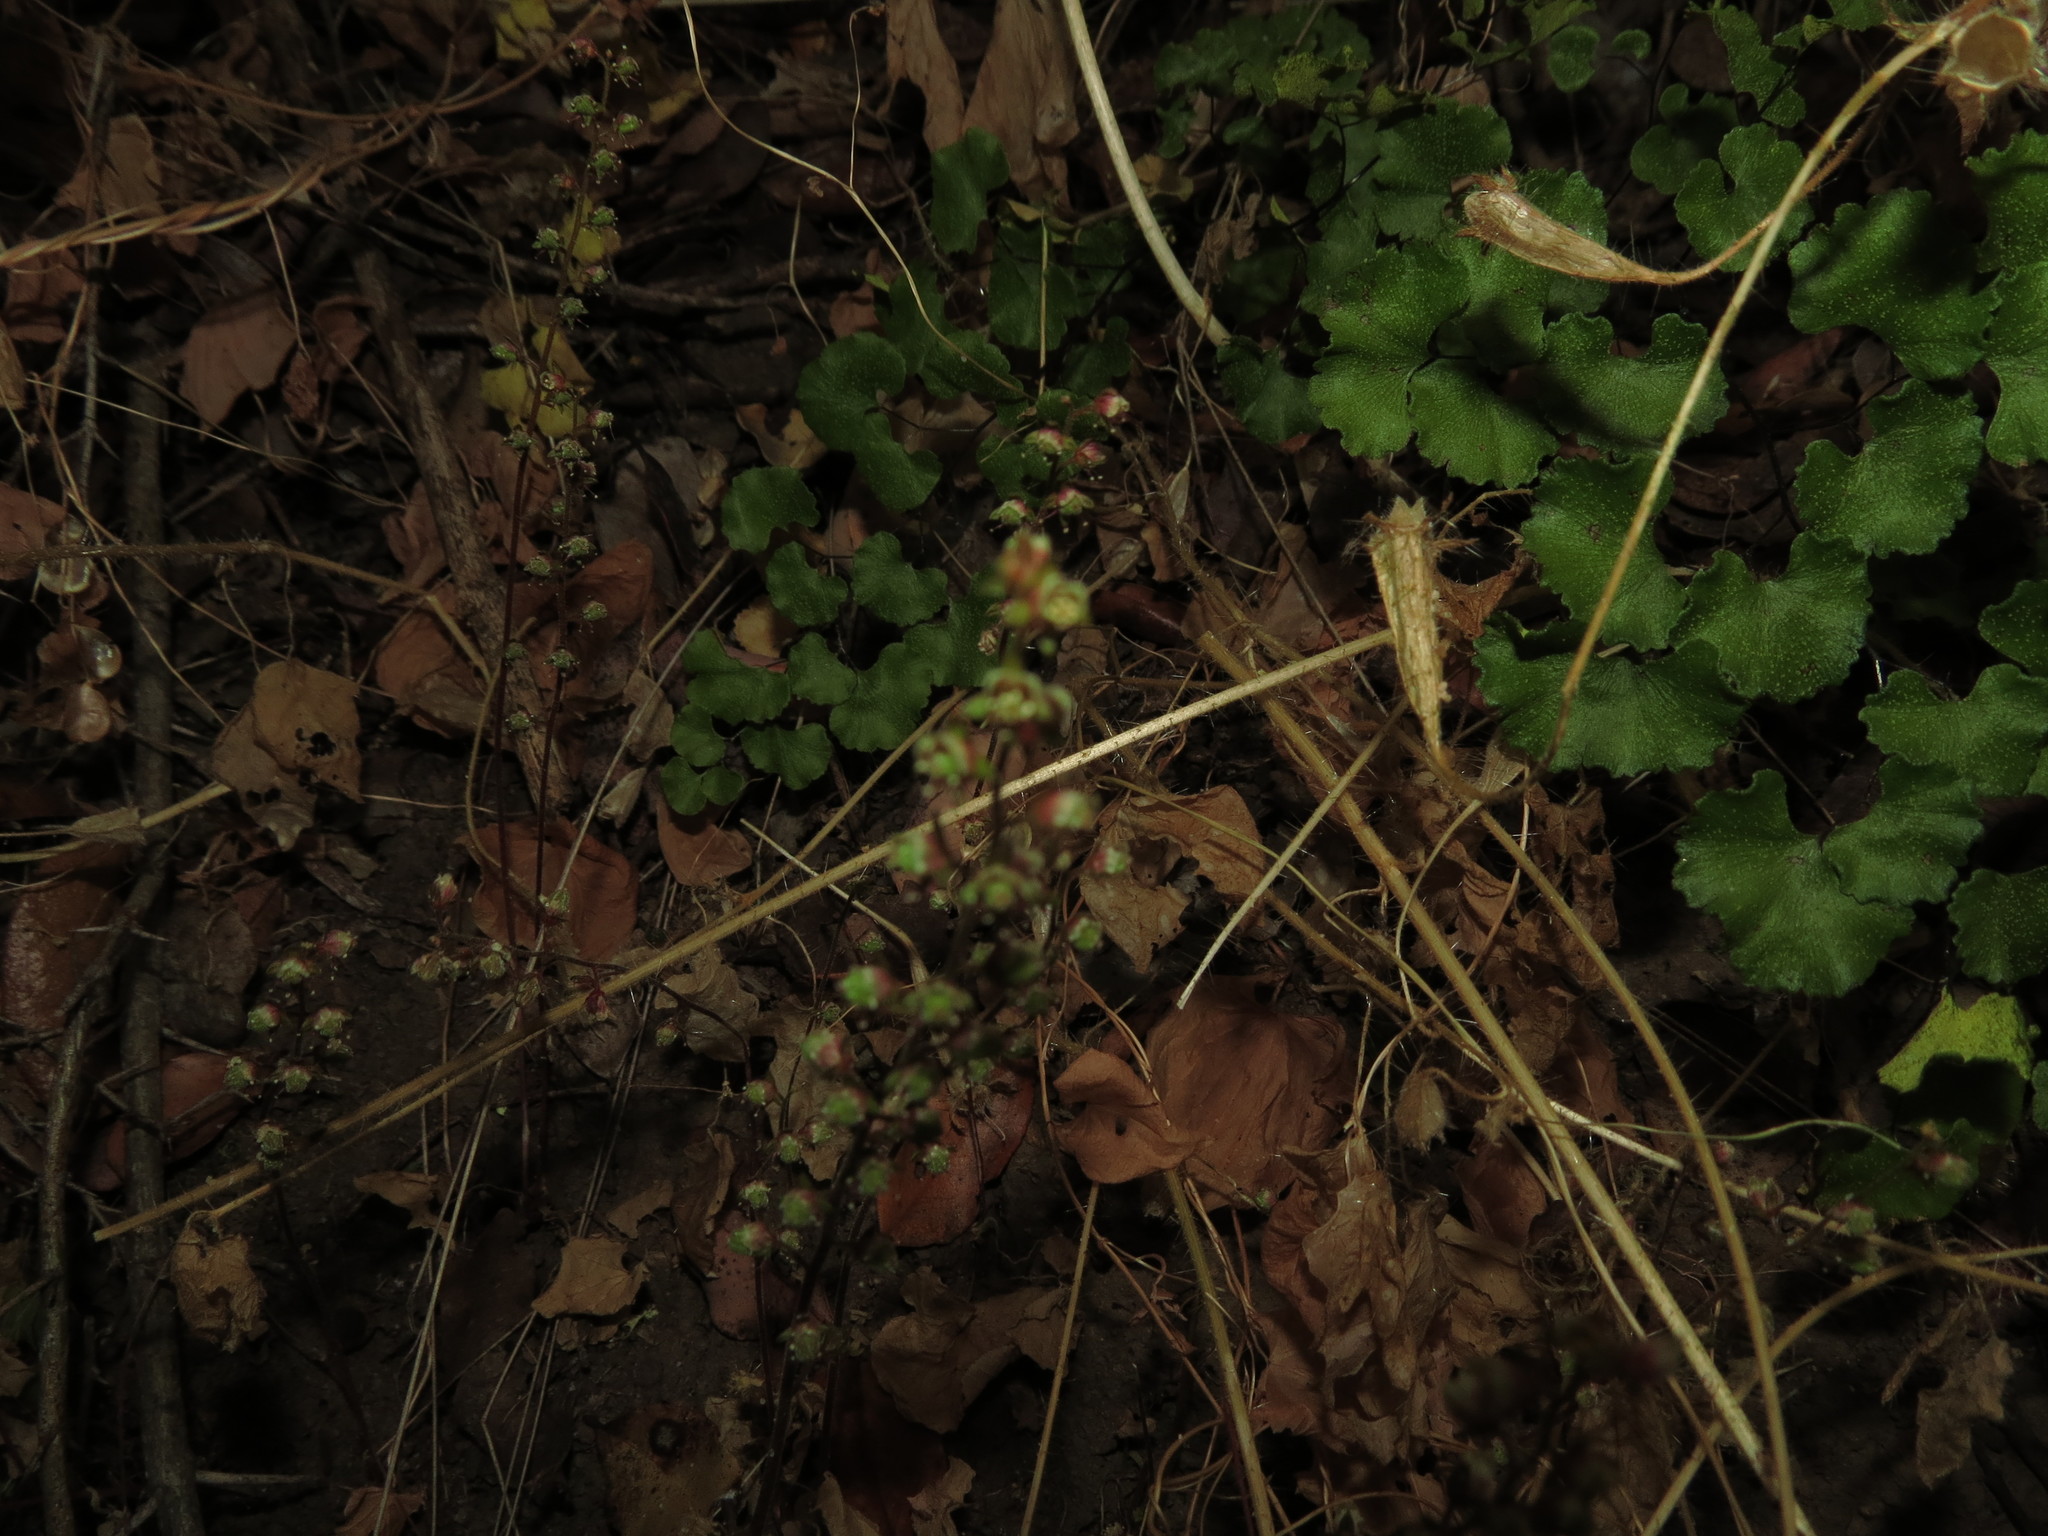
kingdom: Plantae
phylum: Tracheophyta
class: Magnoliopsida
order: Geraniales
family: Francoaceae
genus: Tetilla
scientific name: Tetilla hydrocotylifolia
